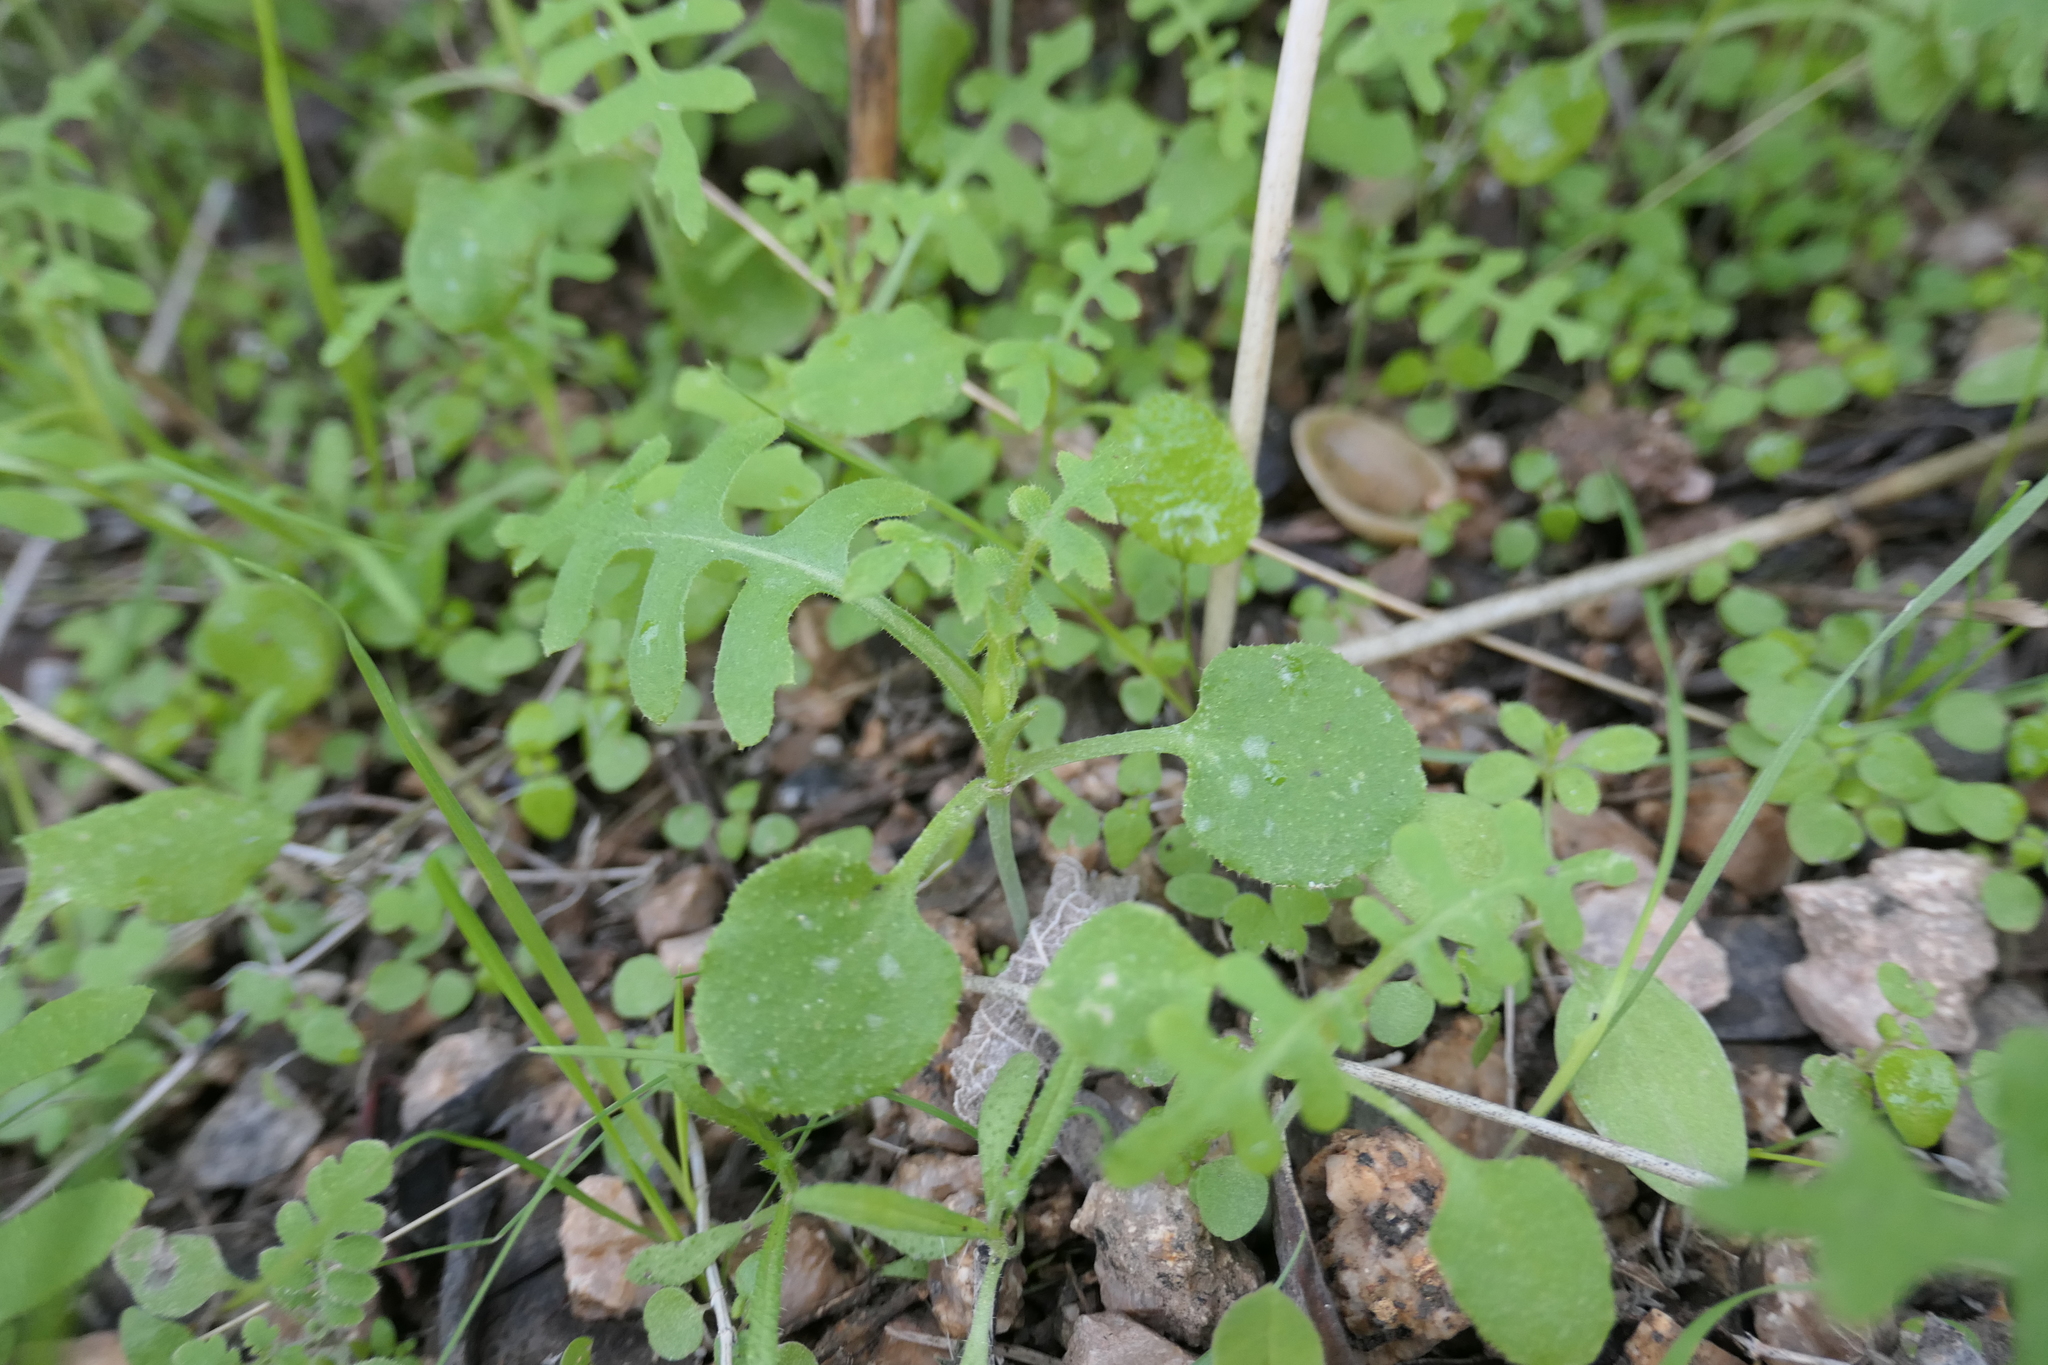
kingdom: Plantae
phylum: Tracheophyta
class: Magnoliopsida
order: Boraginales
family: Hydrophyllaceae
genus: Pholistoma
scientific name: Pholistoma auritum
